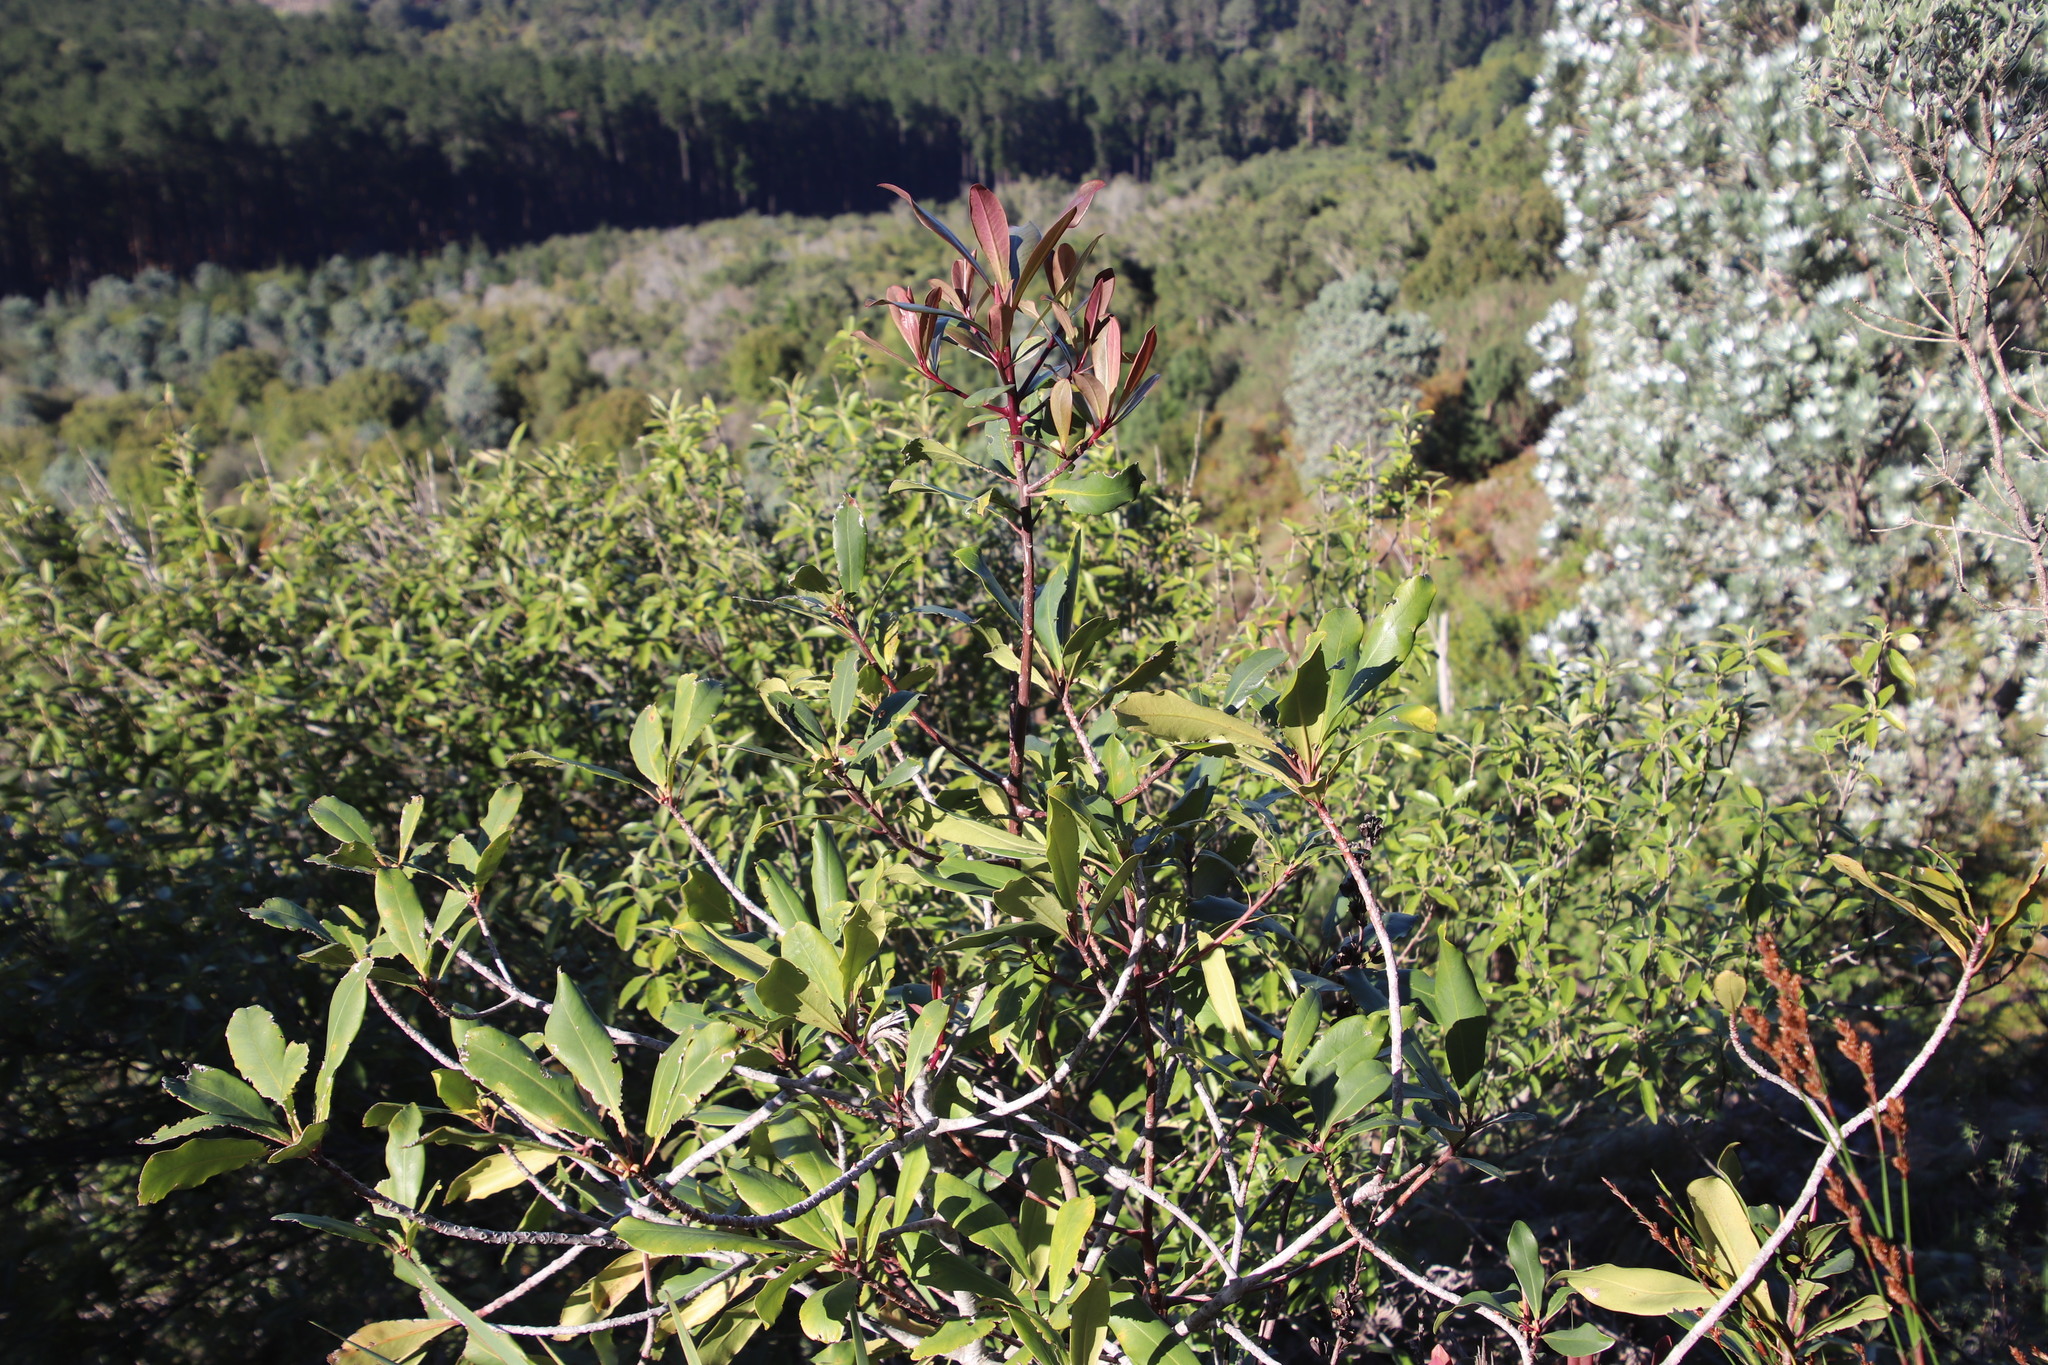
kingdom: Plantae
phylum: Tracheophyta
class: Magnoliopsida
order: Ericales
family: Primulaceae
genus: Myrsine
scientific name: Myrsine melanophloeos
